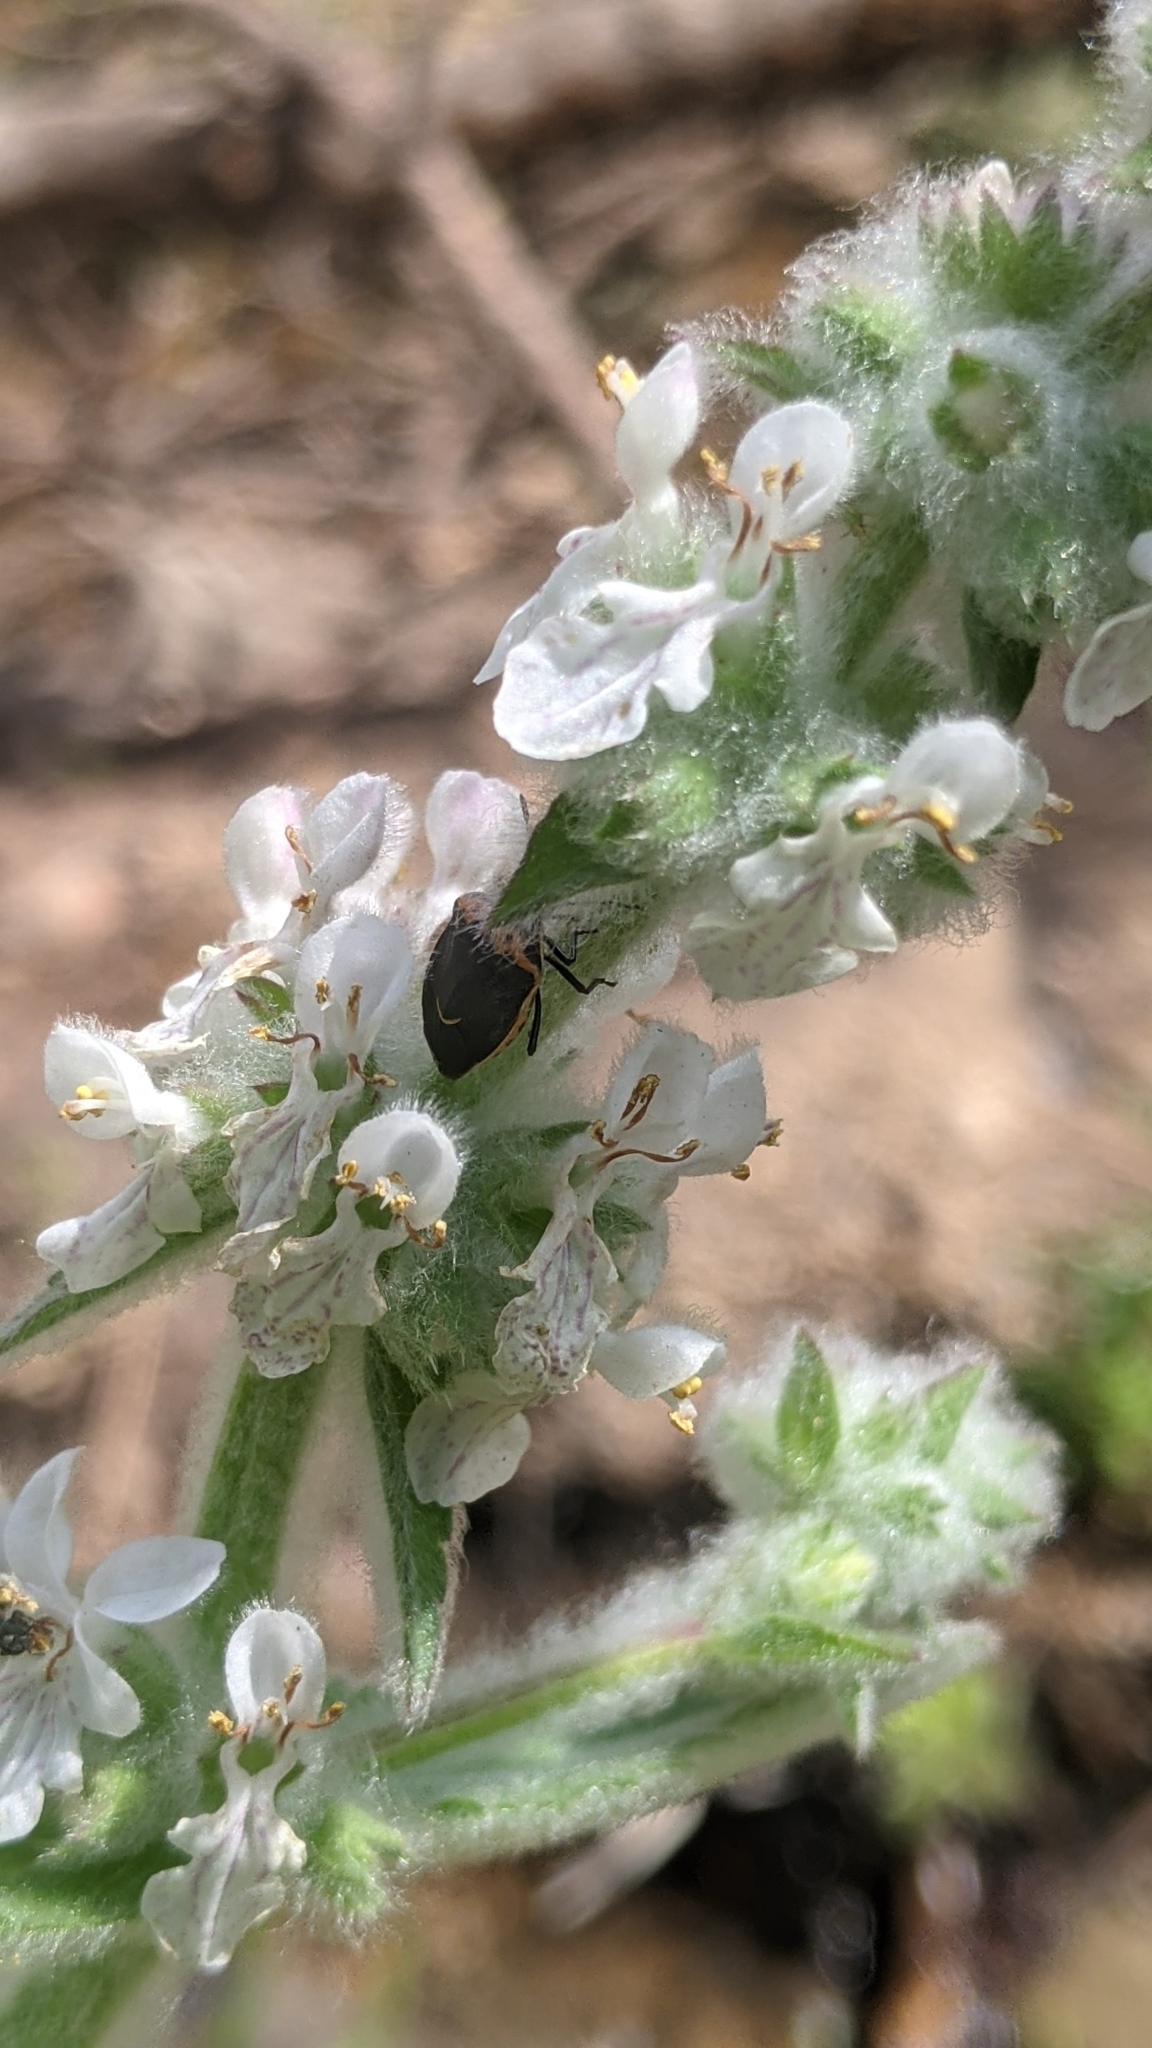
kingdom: Animalia
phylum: Arthropoda
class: Insecta
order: Hemiptera
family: Pentatomidae
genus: Cosmopepla
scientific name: Cosmopepla conspicillaris
